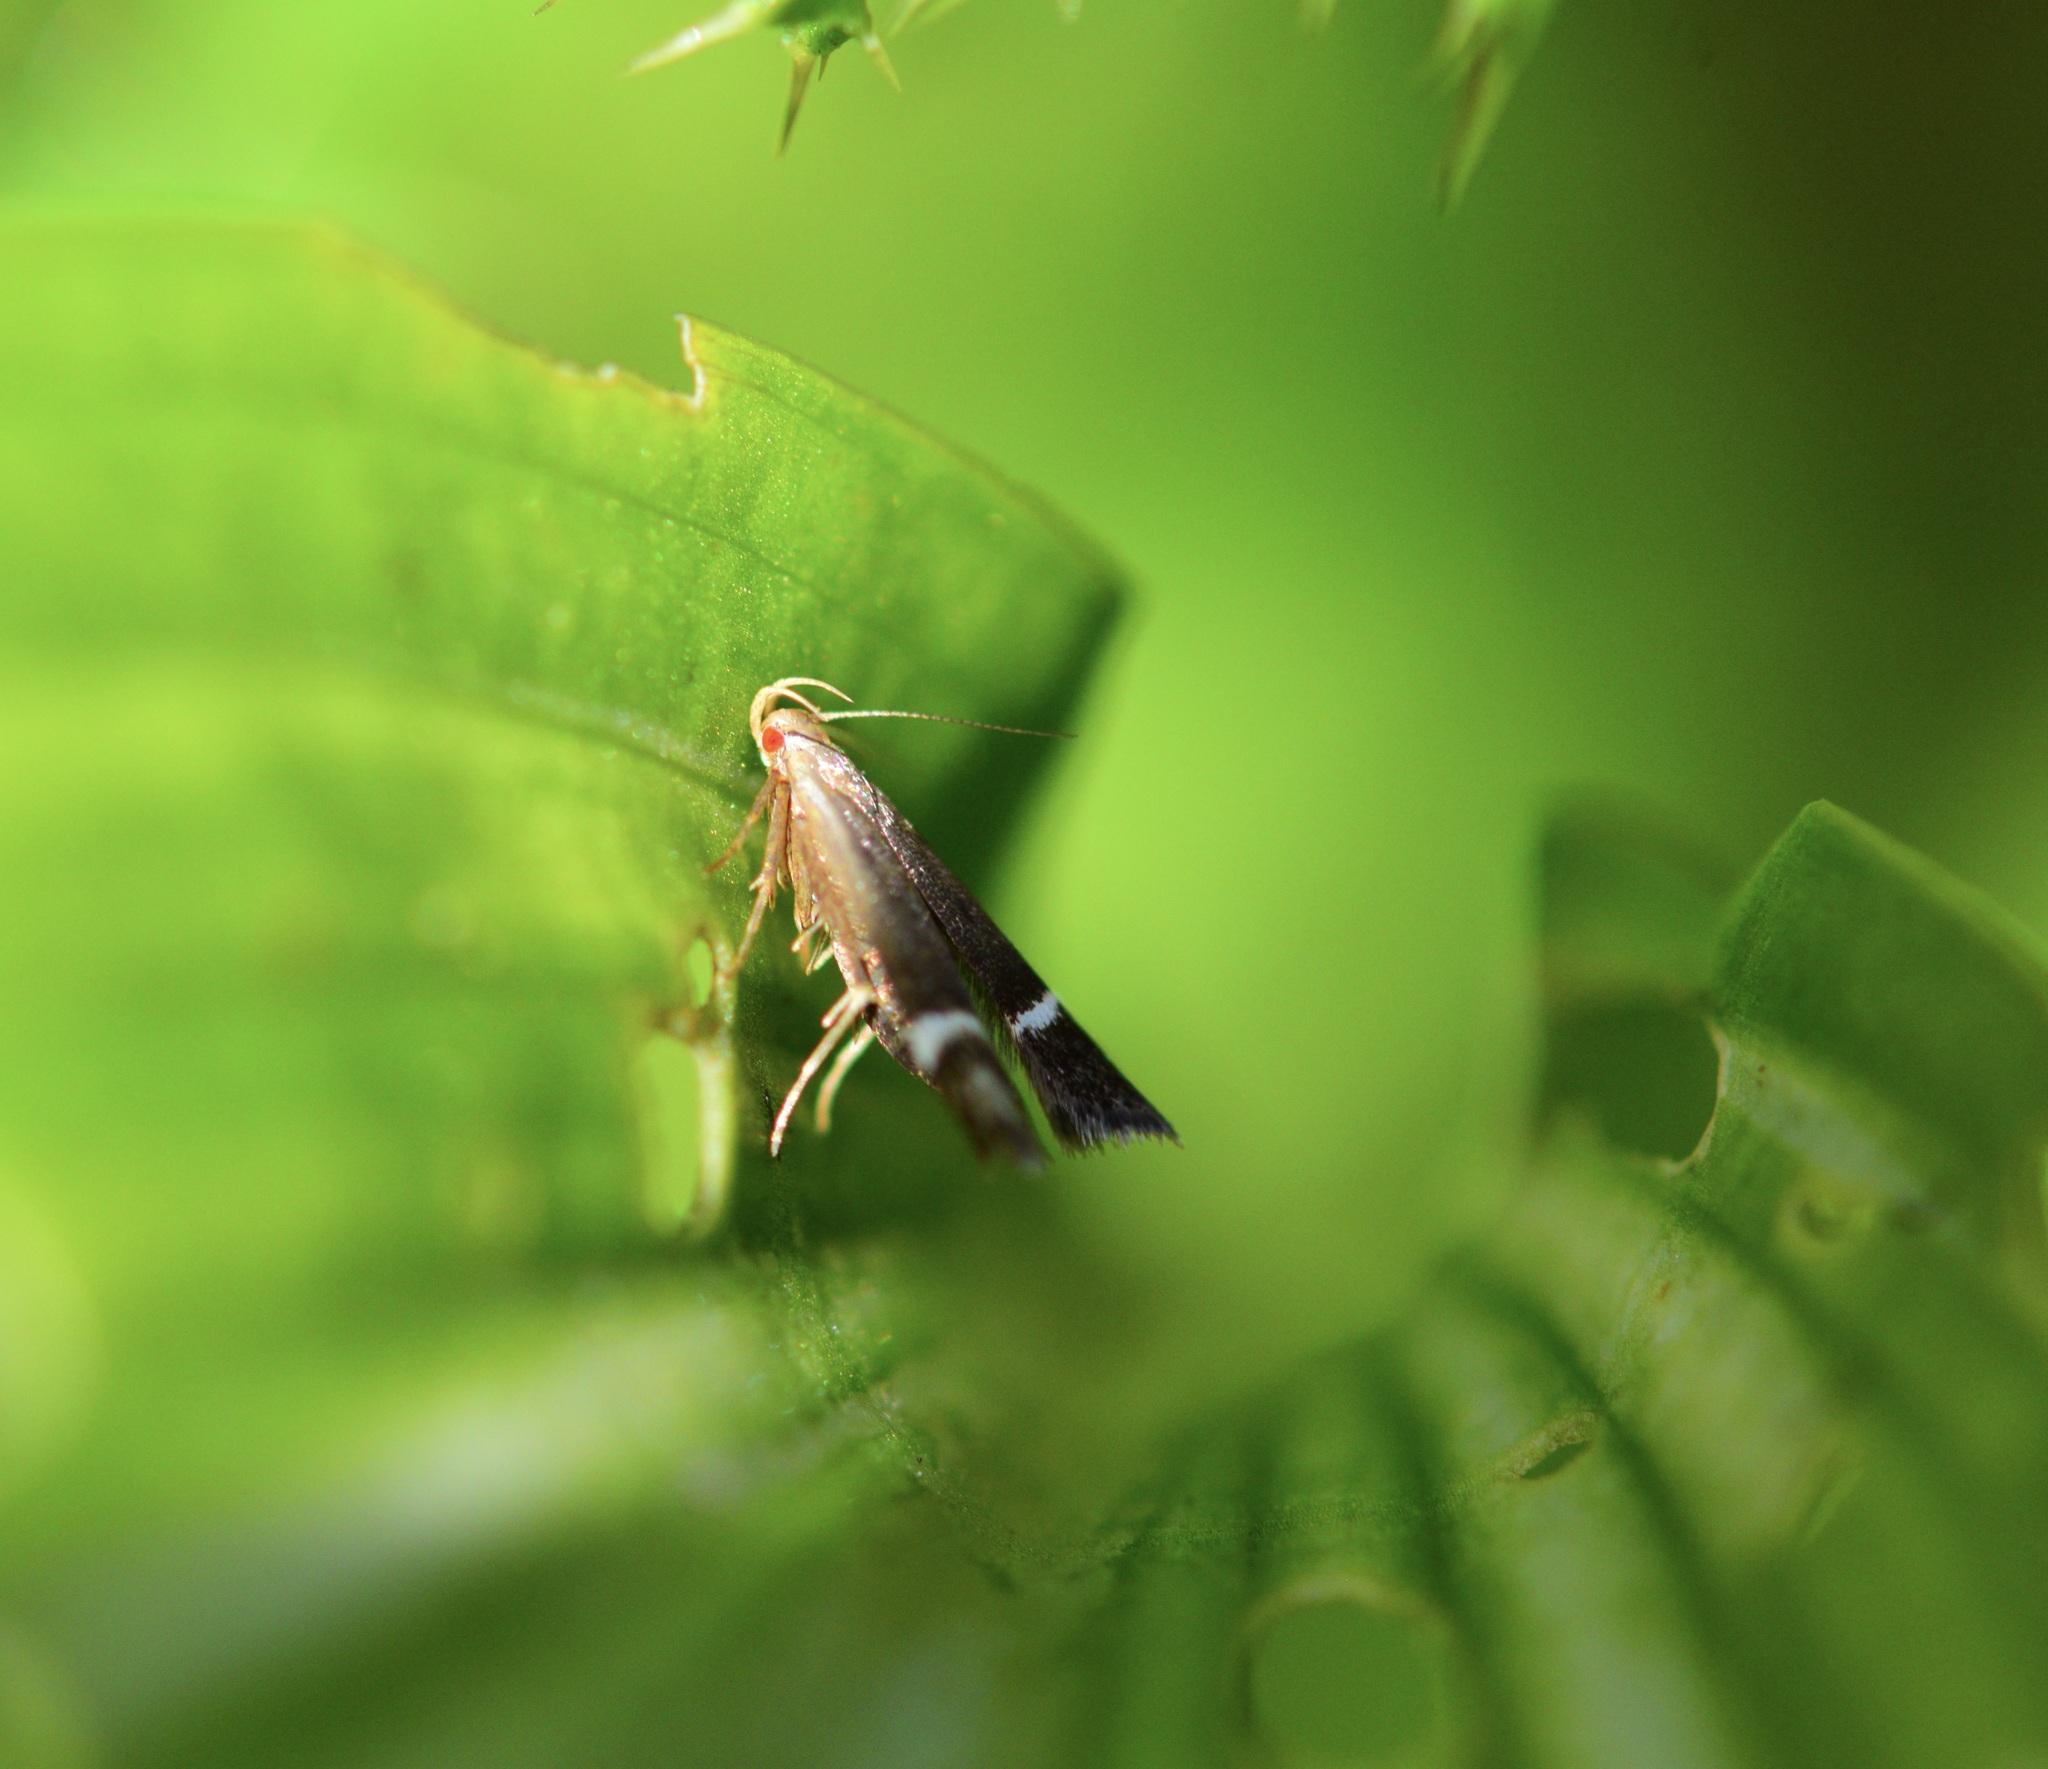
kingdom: Animalia
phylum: Arthropoda
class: Insecta
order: Lepidoptera
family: Gelechiidae
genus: Anacampsis
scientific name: Anacampsis agrimoniella
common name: Agrimony anacampsis moth
